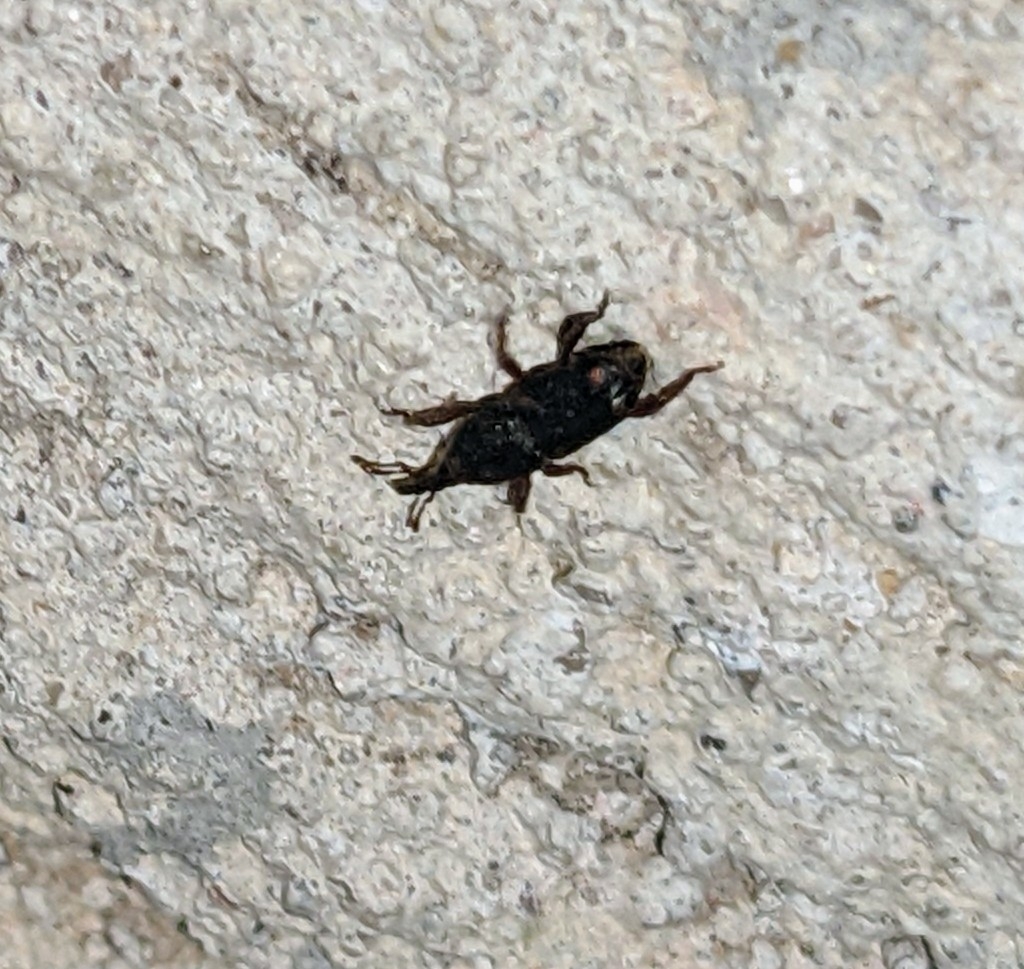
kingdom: Animalia
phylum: Arthropoda
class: Insecta
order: Coleoptera
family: Dryophthoridae
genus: Sitophilus
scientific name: Sitophilus
